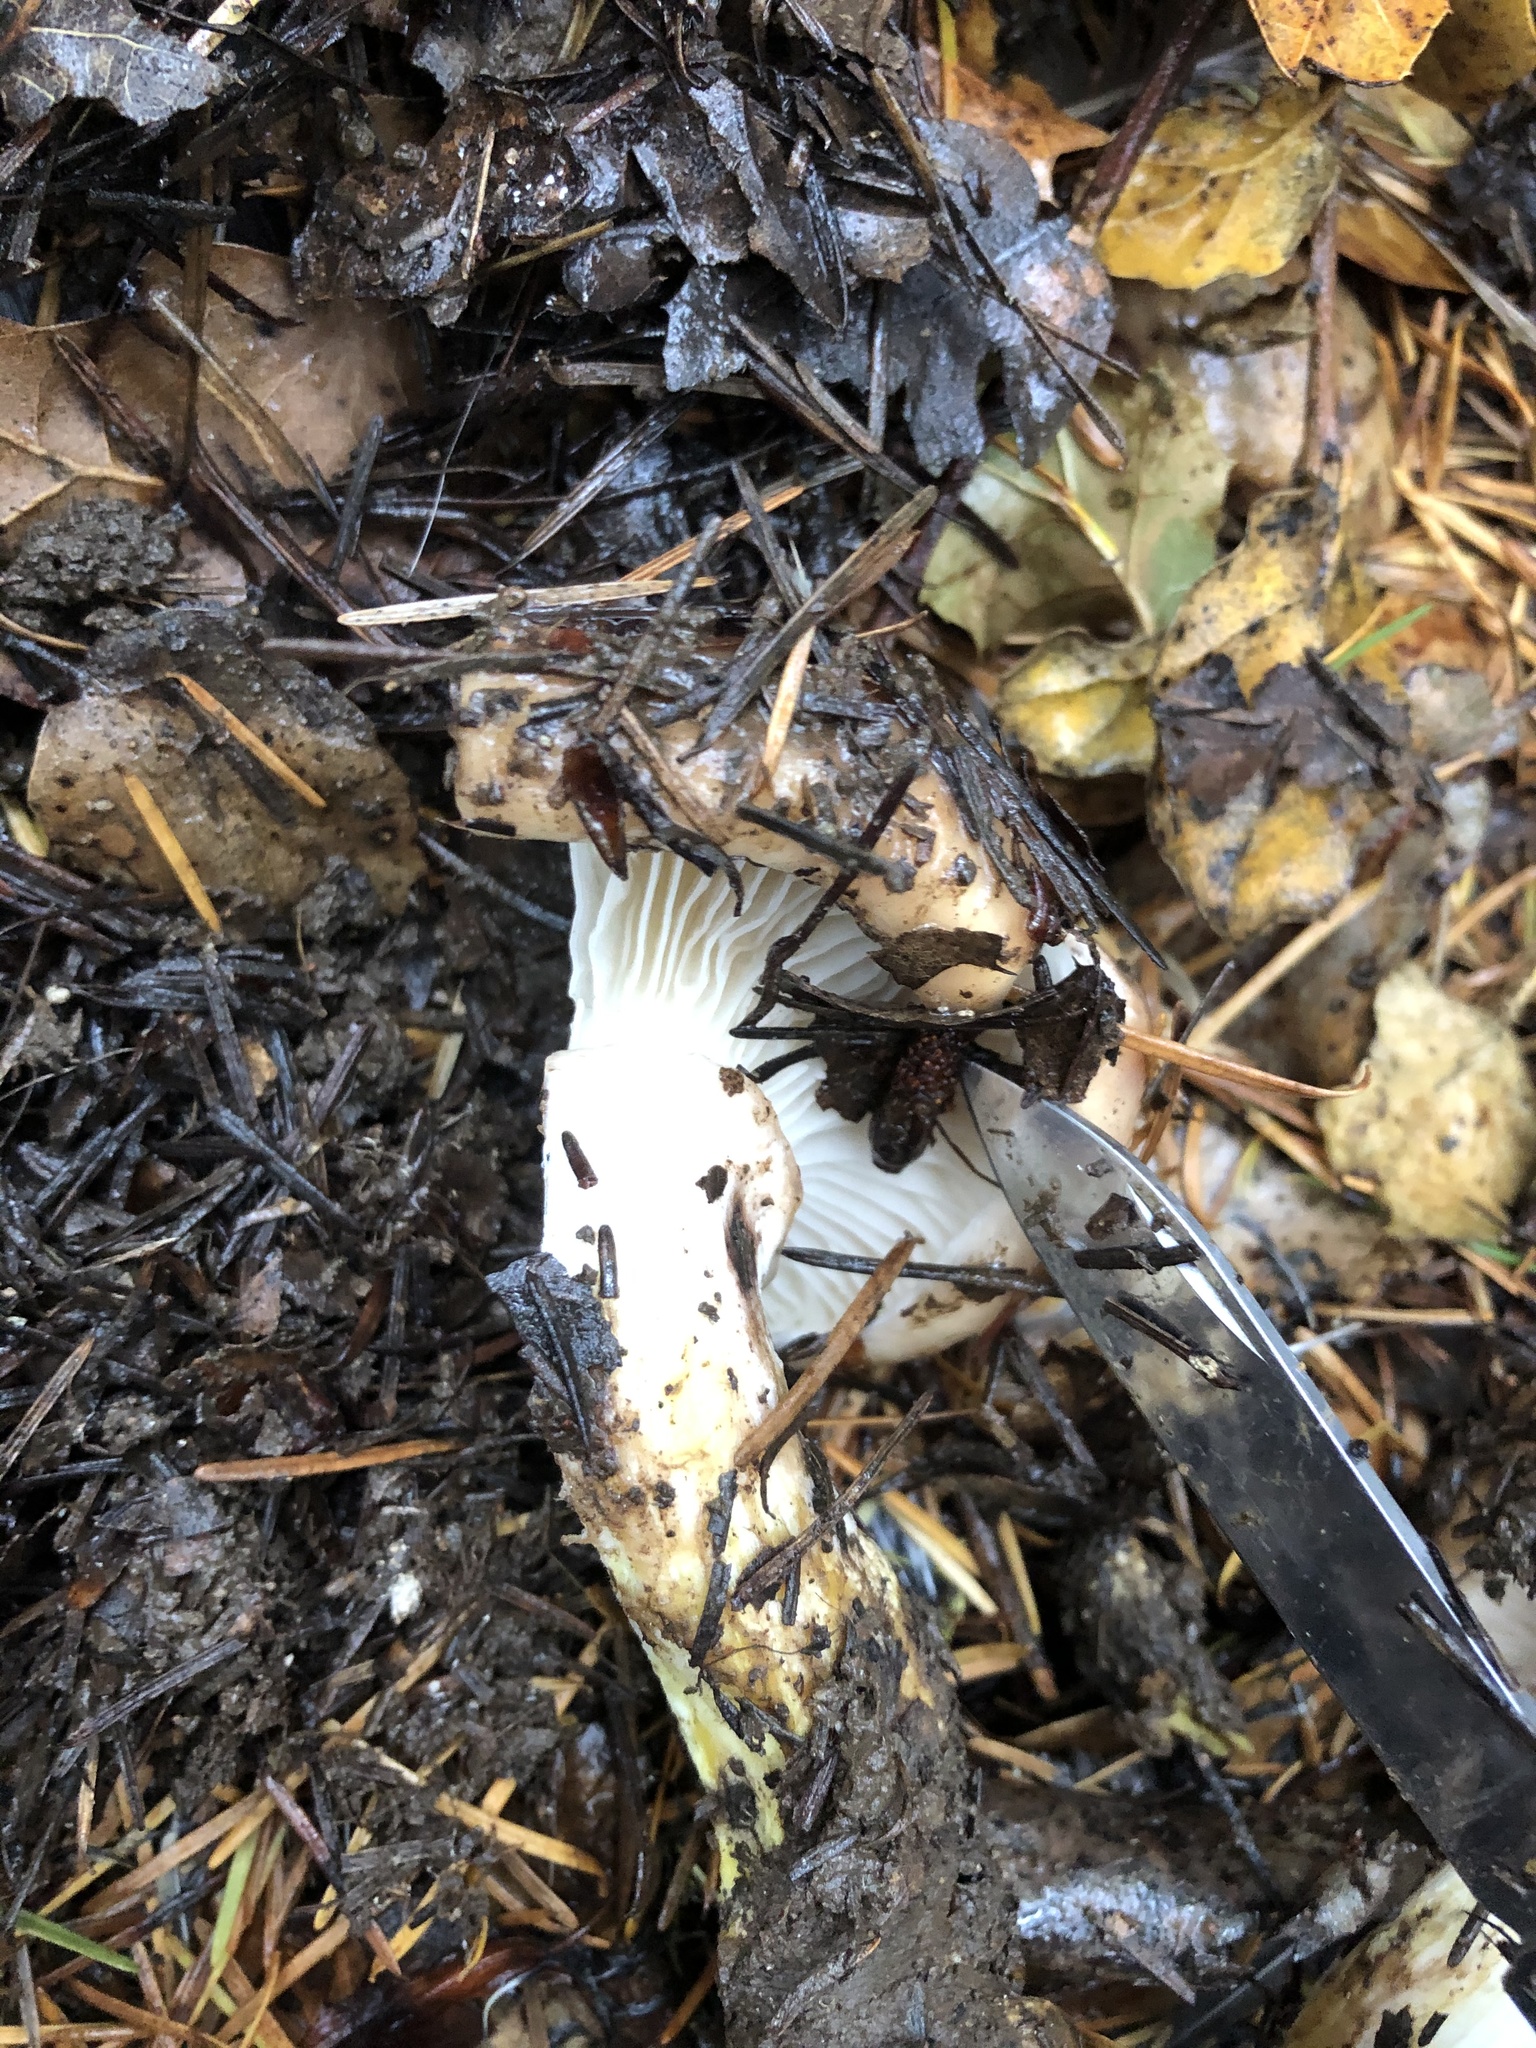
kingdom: Fungi
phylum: Basidiomycota
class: Agaricomycetes
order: Boletales
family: Gomphidiaceae
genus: Gomphidius
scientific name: Gomphidius glutinosus
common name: Slimy spike
